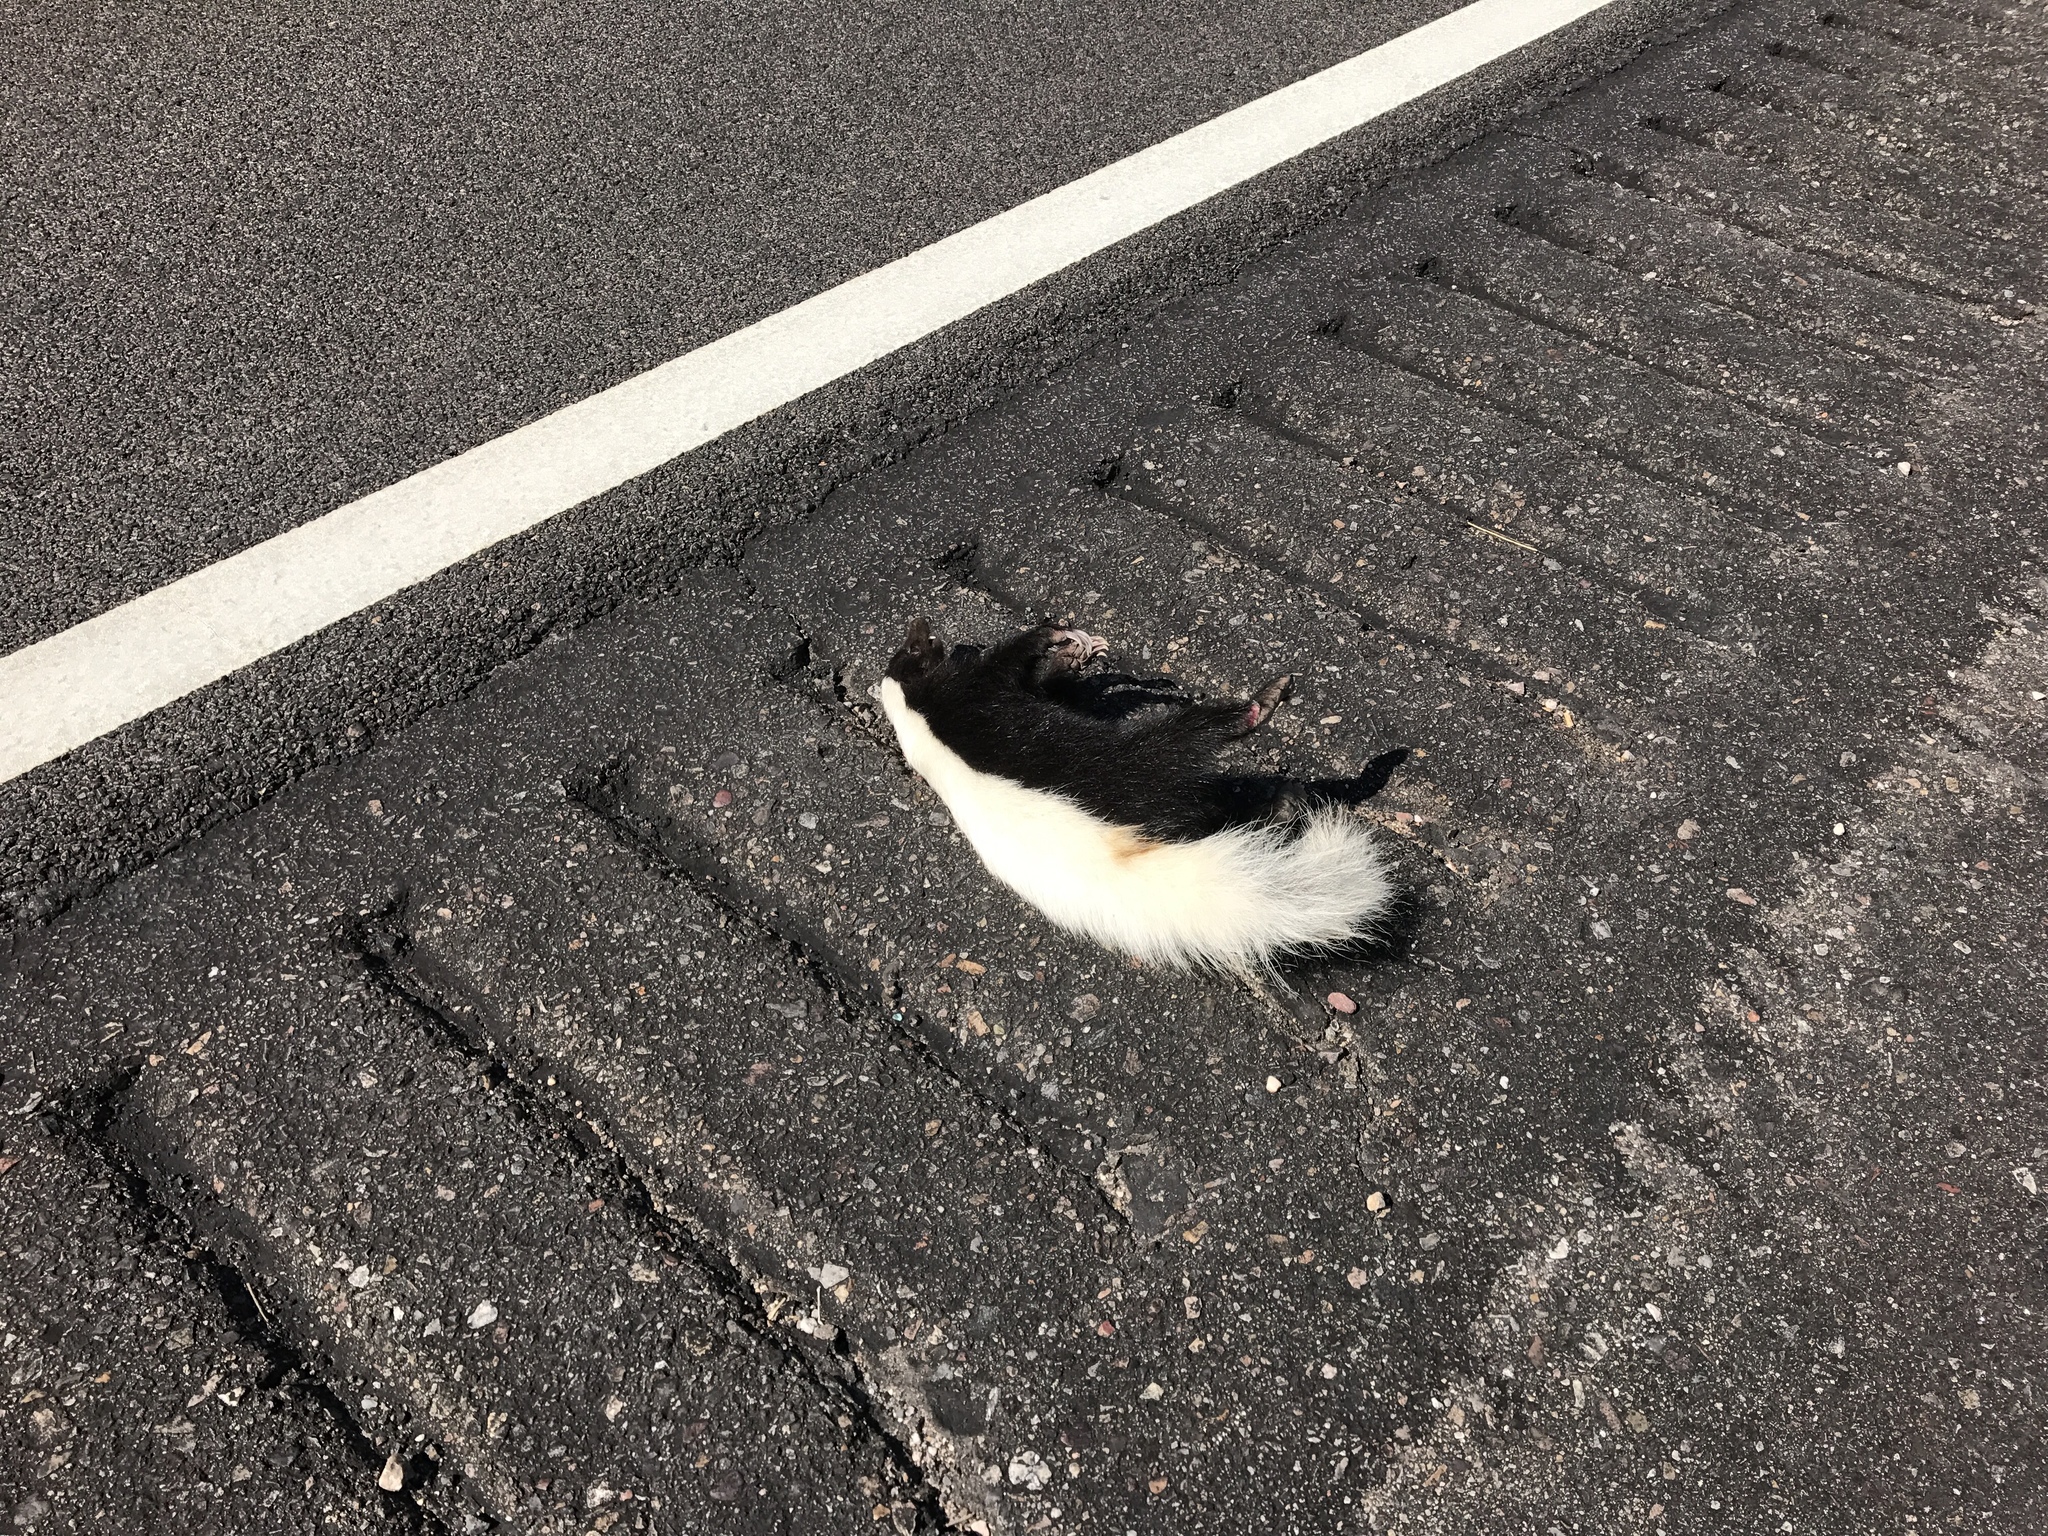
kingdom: Animalia
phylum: Chordata
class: Mammalia
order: Carnivora
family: Mephitidae
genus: Conepatus
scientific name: Conepatus leuconotus
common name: Eastern hog-nosed skunk
